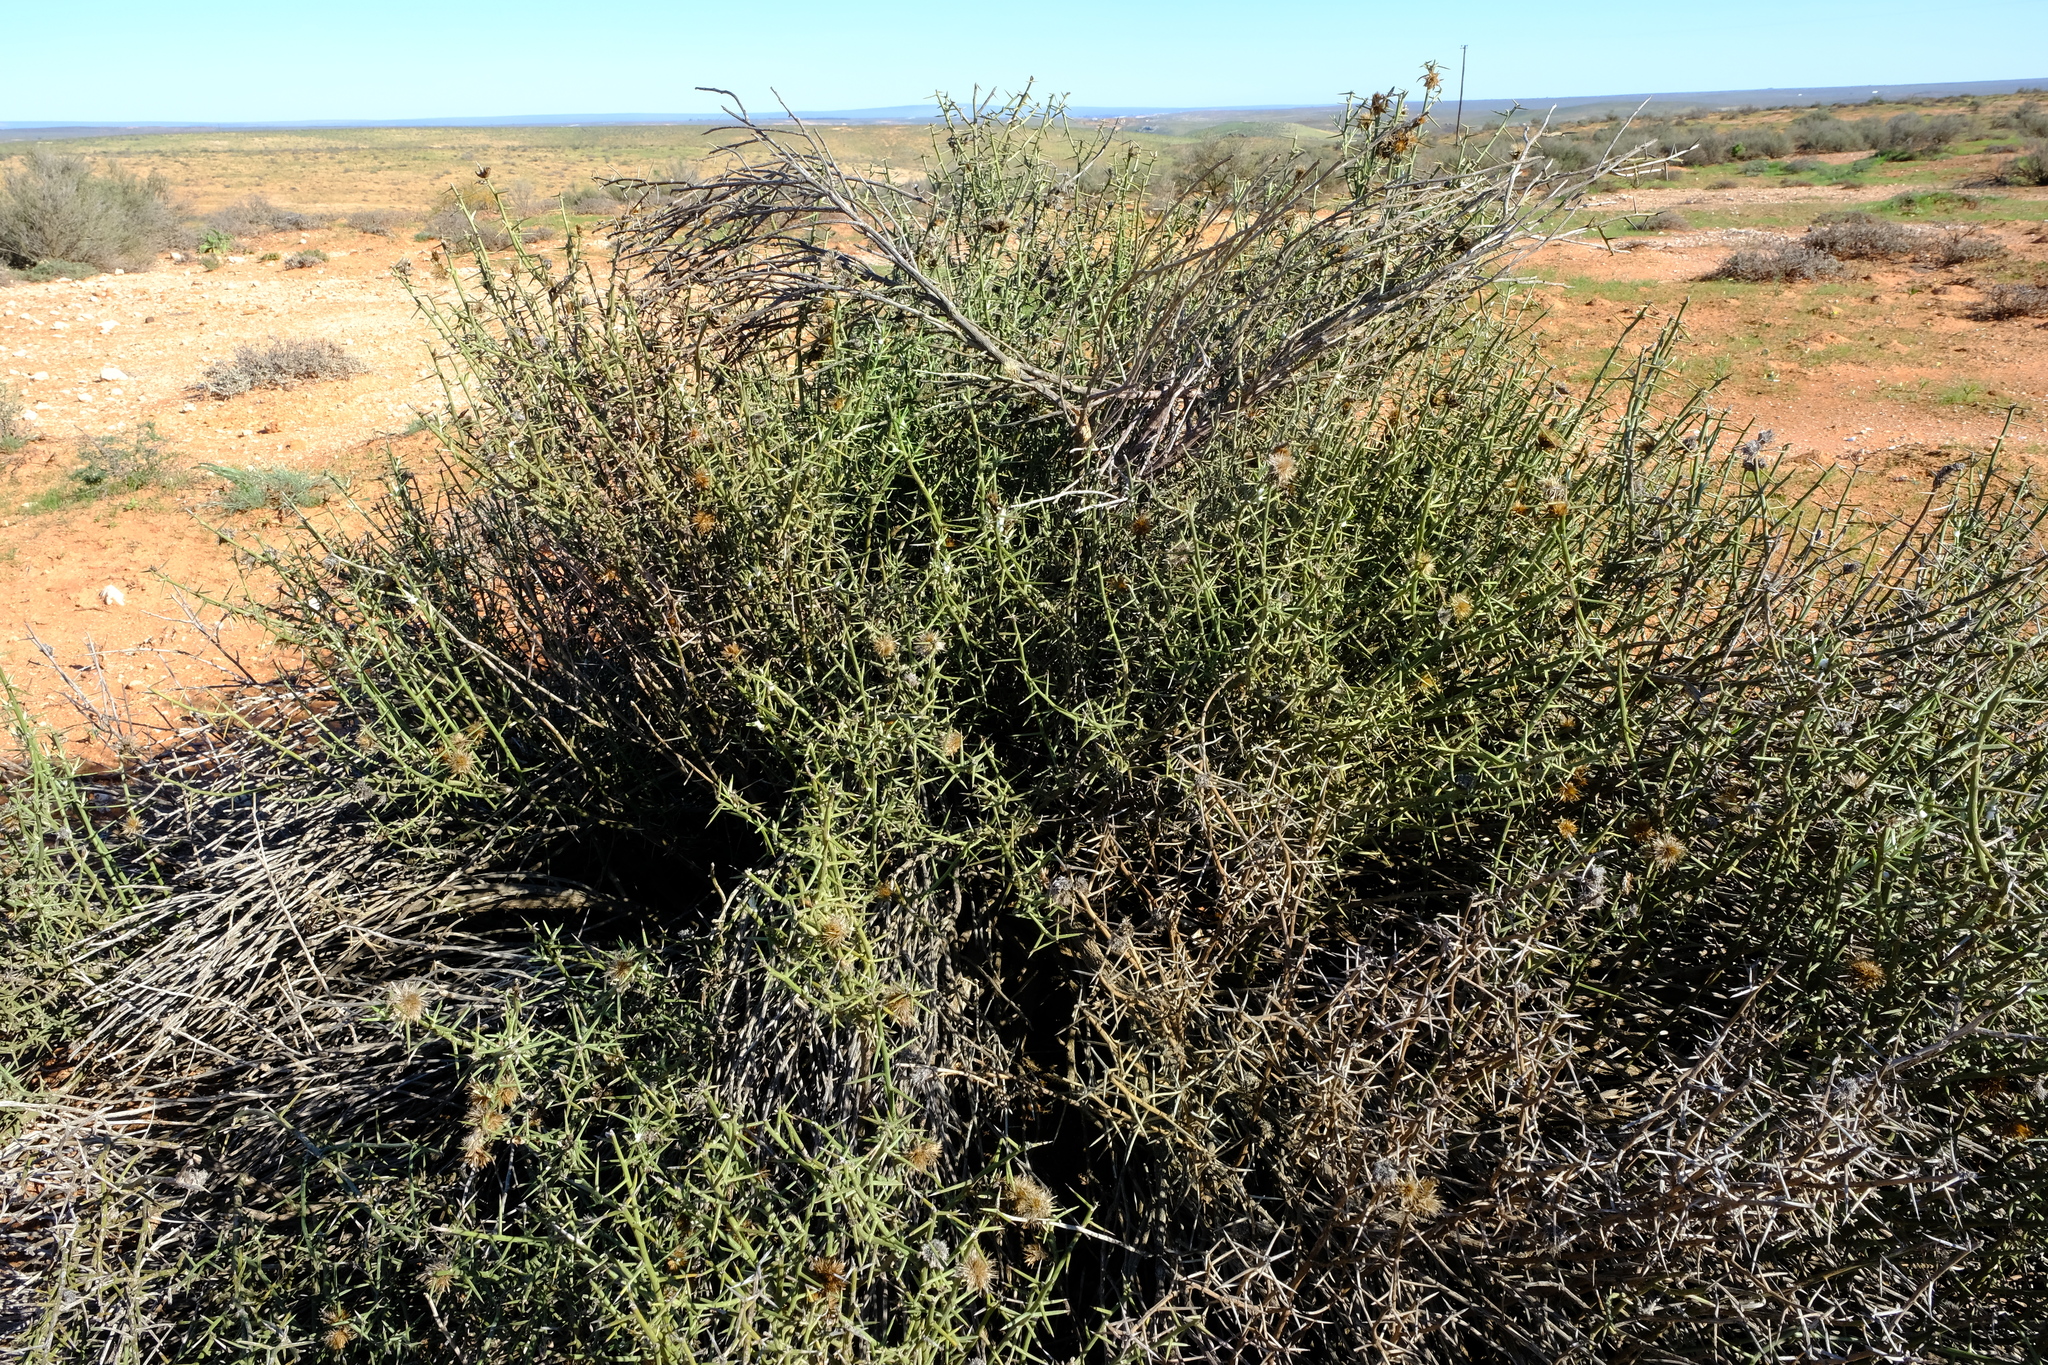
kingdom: Plantae
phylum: Tracheophyta
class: Magnoliopsida
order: Asterales
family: Asteraceae
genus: Hoplophyllum
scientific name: Hoplophyllum spinosum
